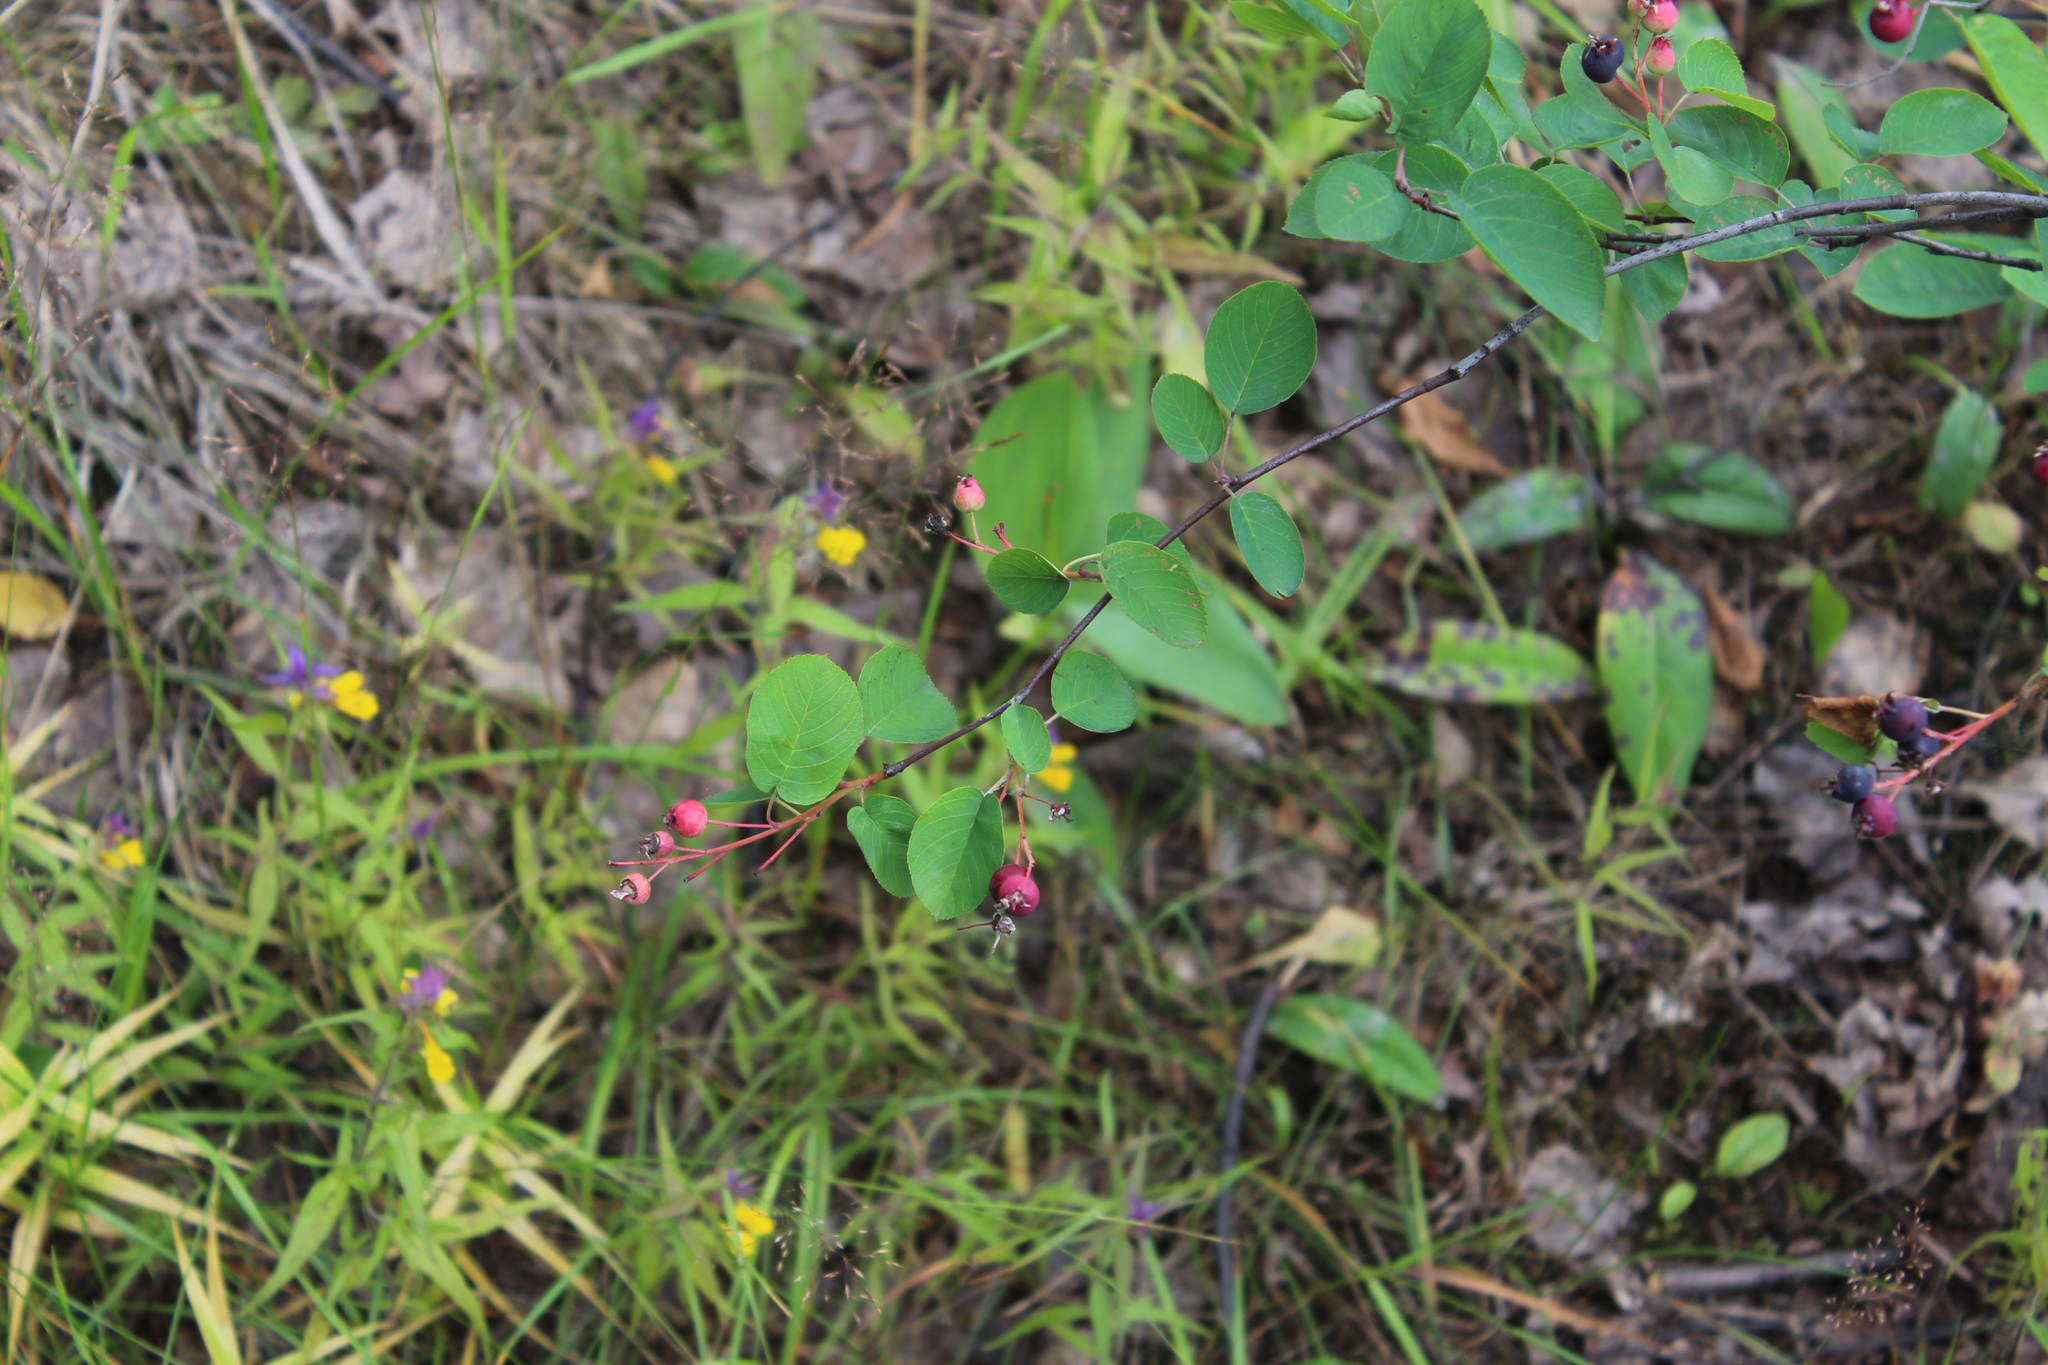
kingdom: Plantae
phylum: Tracheophyta
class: Magnoliopsida
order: Rosales
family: Rosaceae
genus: Amelanchier
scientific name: Amelanchier
